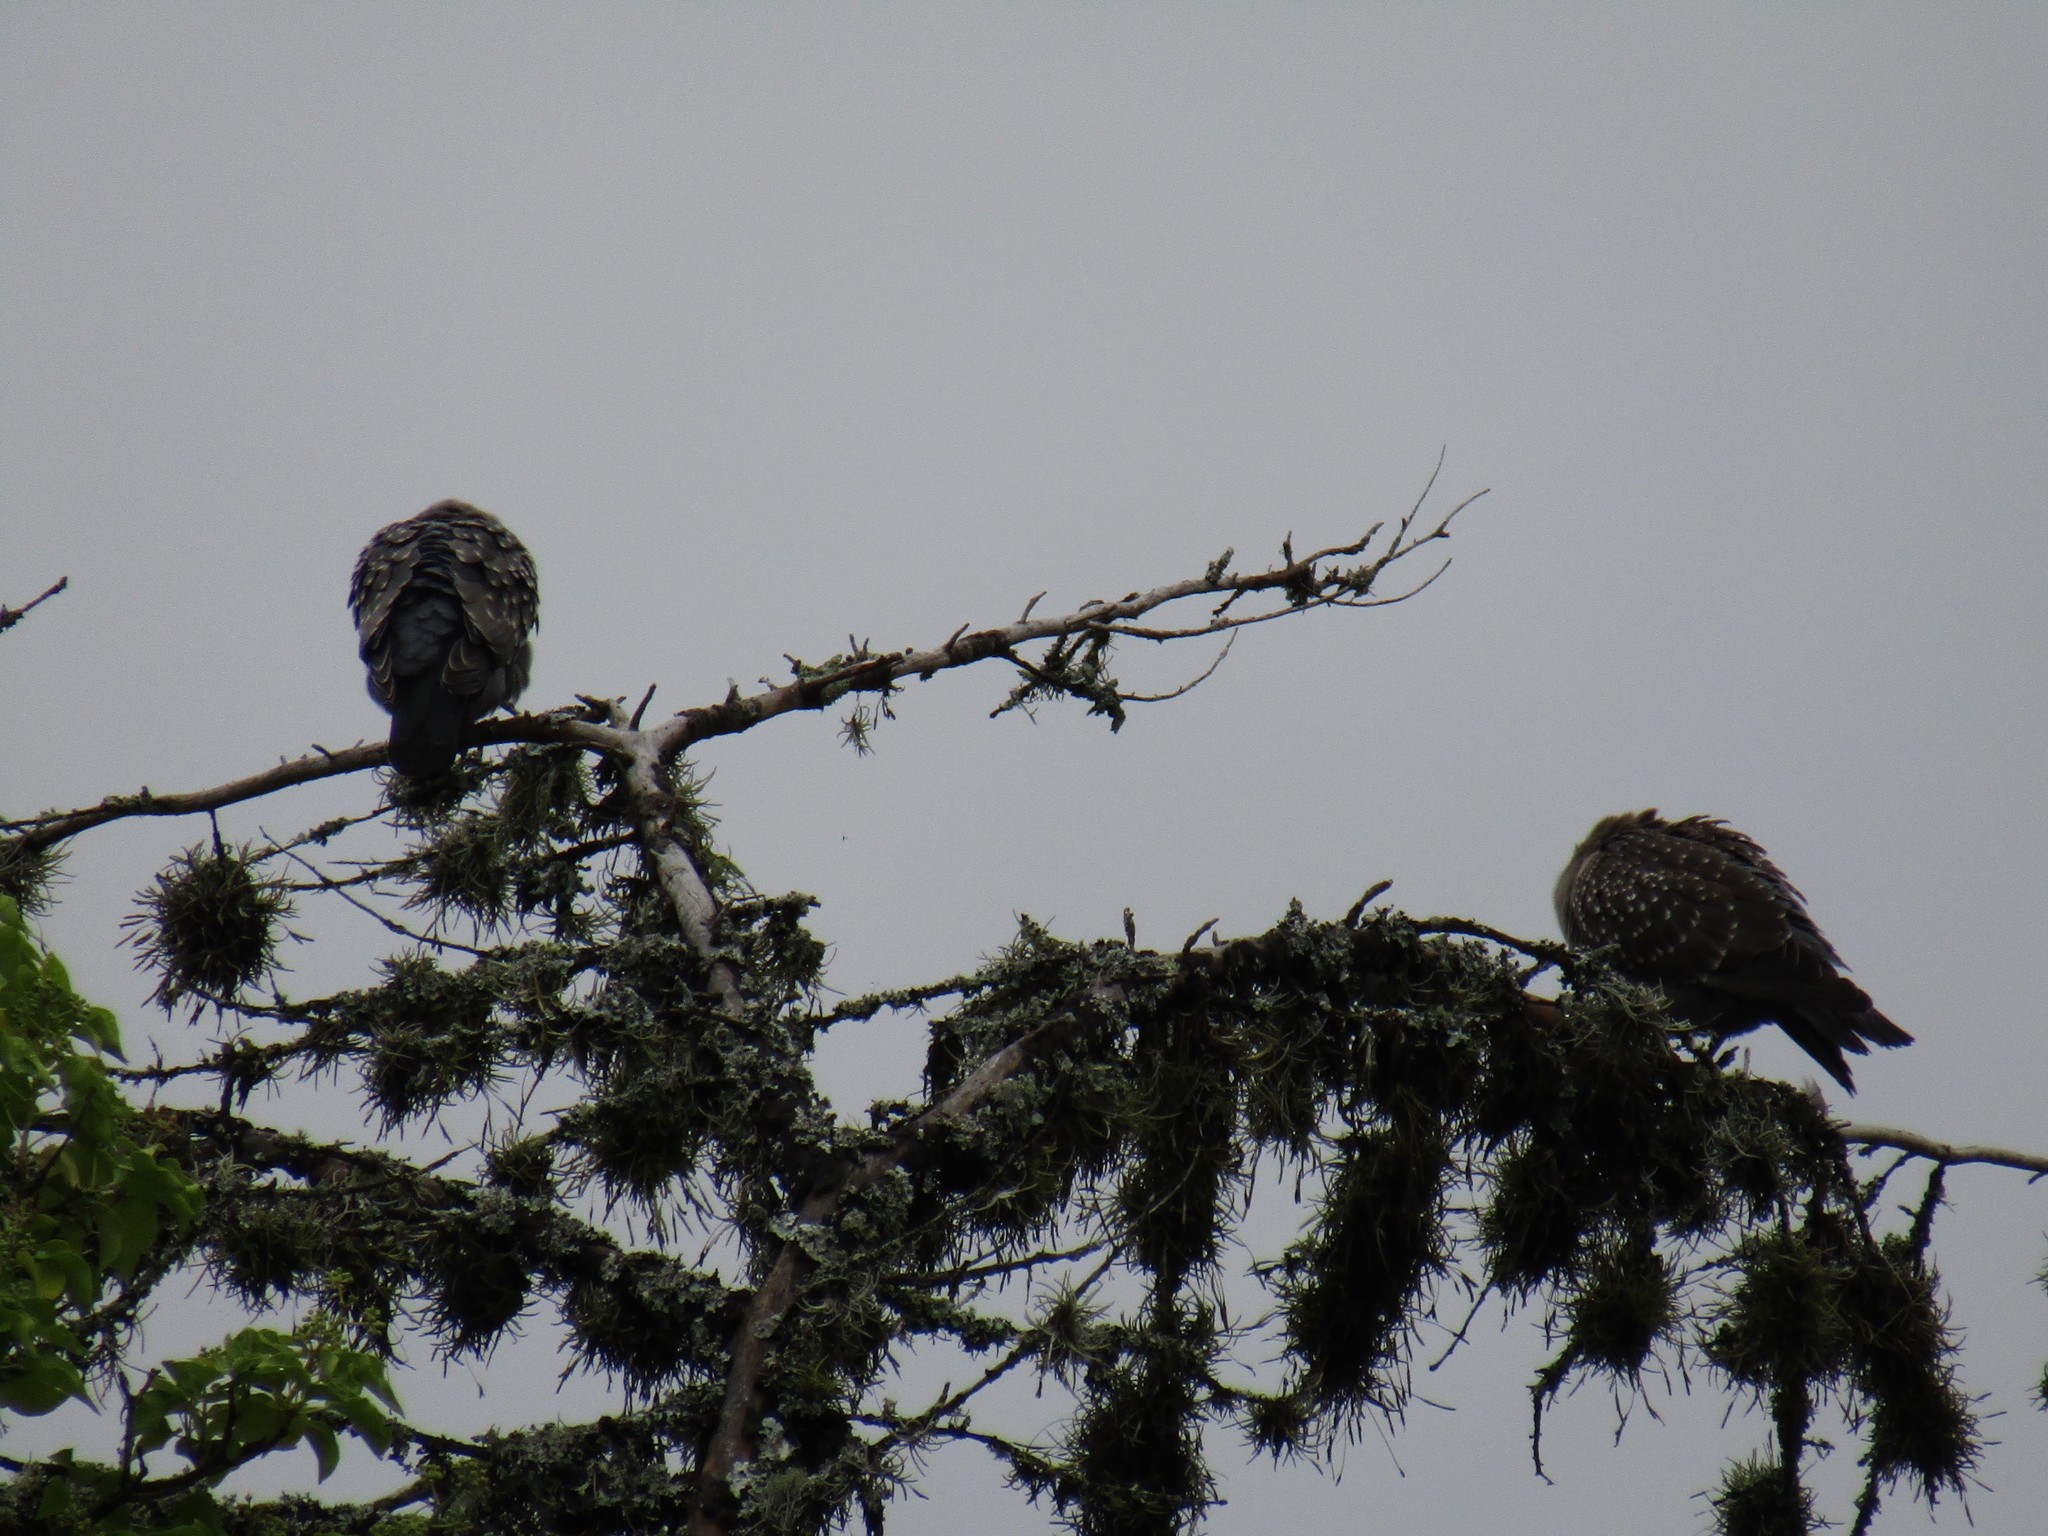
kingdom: Animalia
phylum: Chordata
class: Aves
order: Columbiformes
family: Columbidae
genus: Patagioenas
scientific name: Patagioenas maculosa
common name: Spot-winged pigeon
